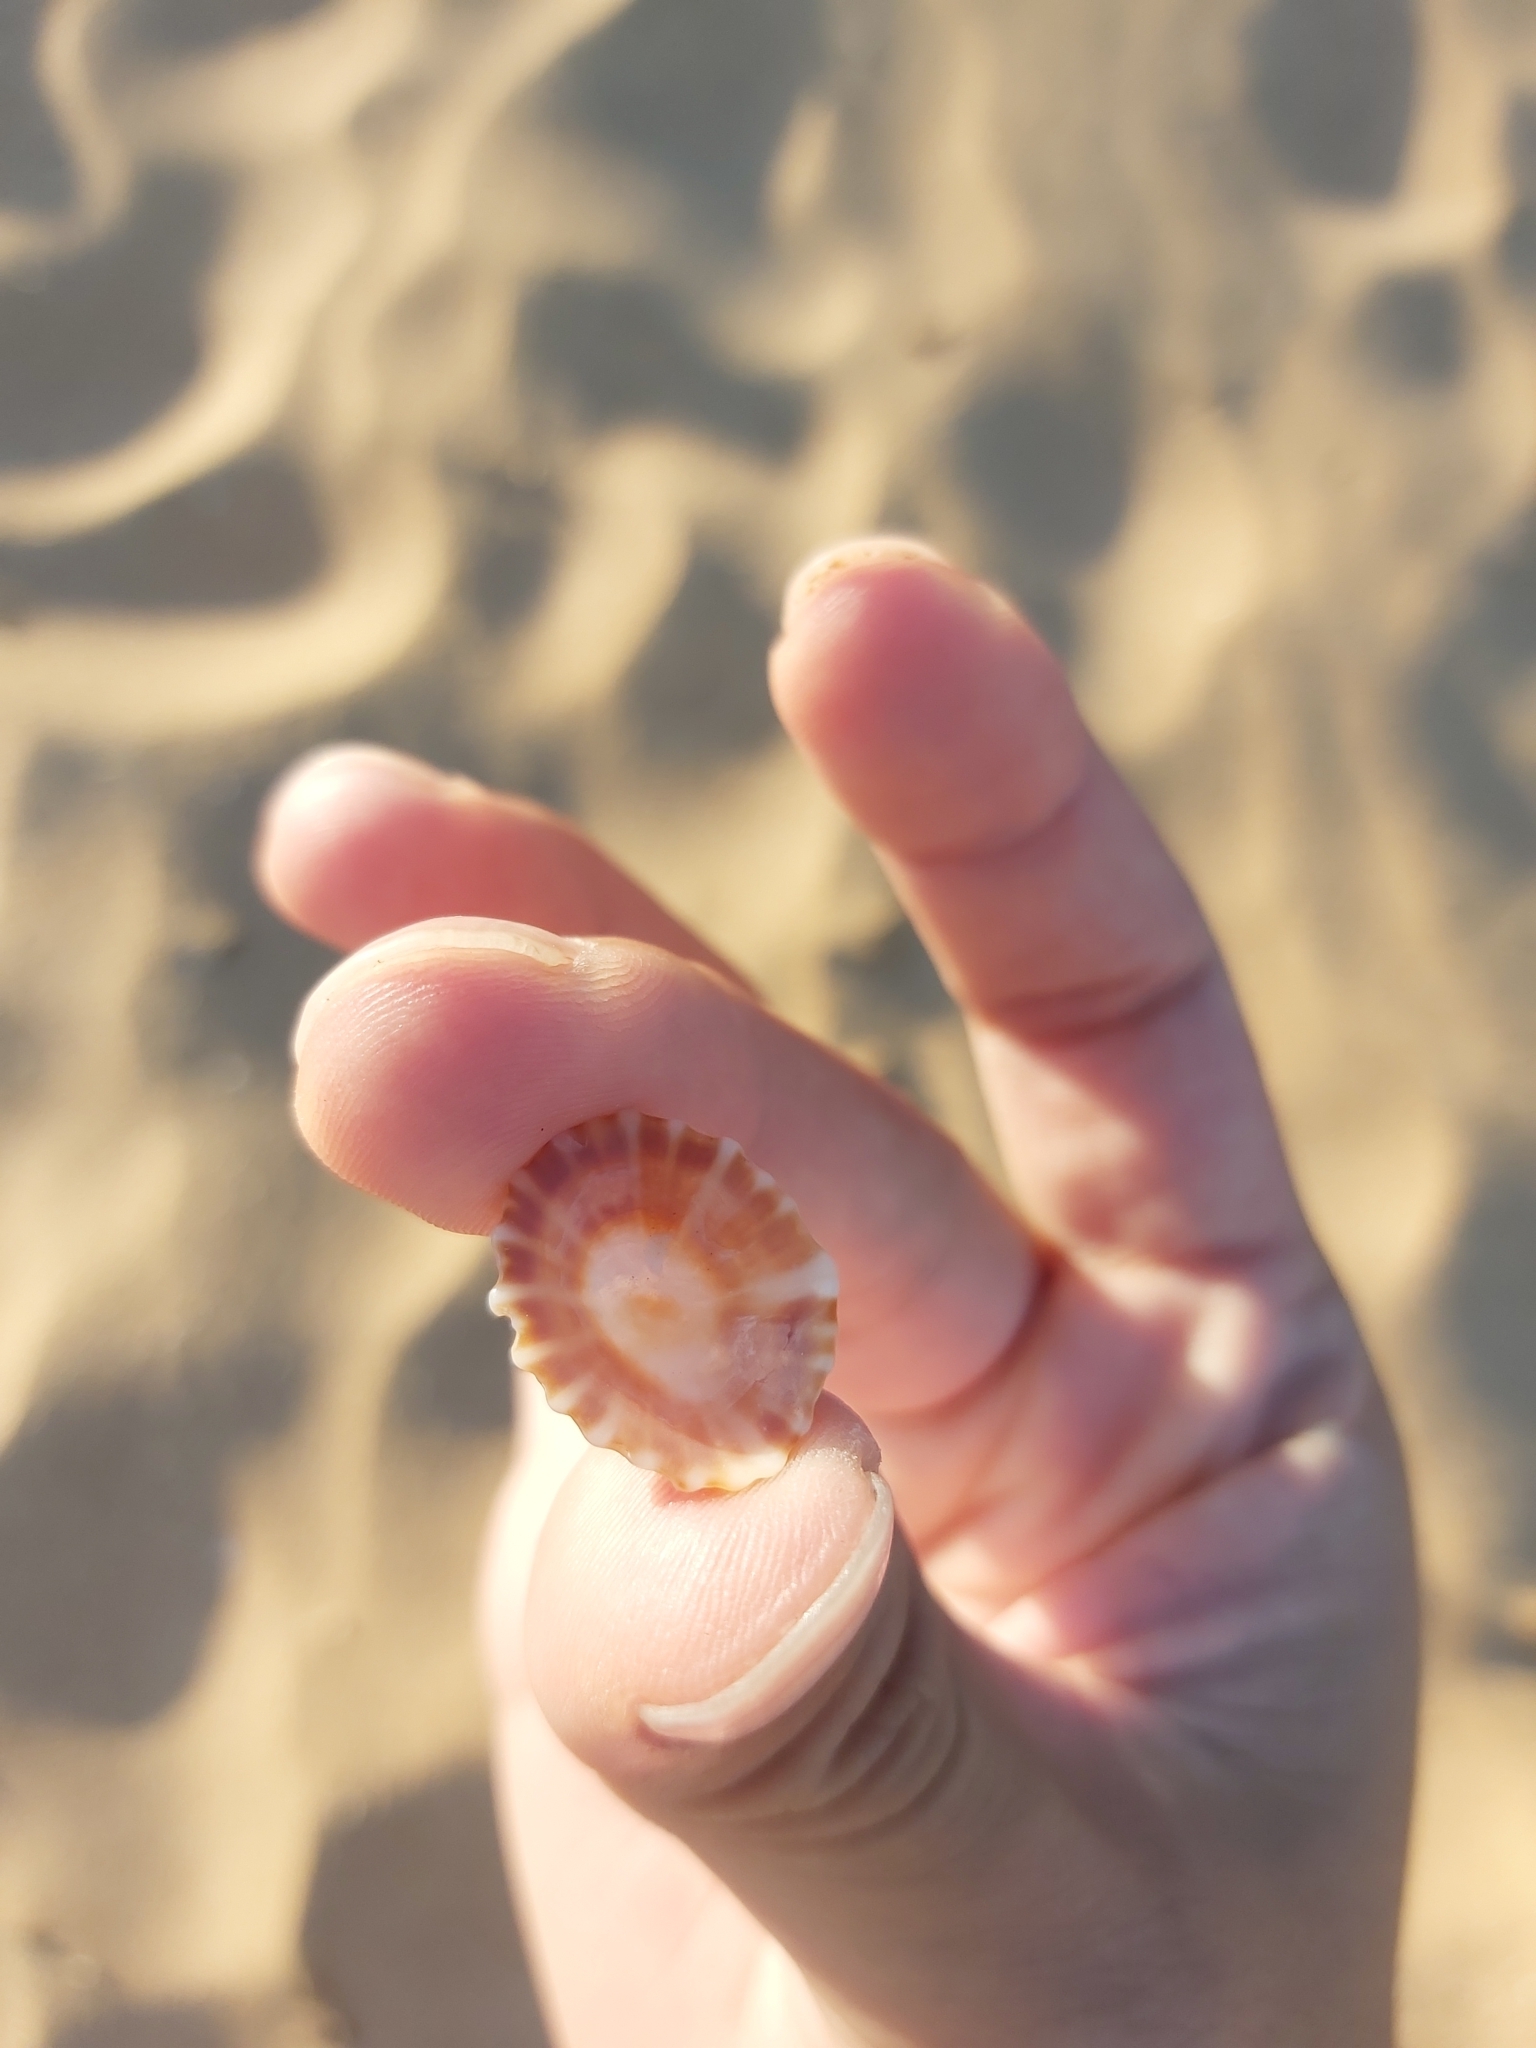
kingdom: Animalia
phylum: Mollusca
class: Gastropoda
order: Siphonariida
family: Siphonariidae
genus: Siphonaria
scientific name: Siphonaria denticulata
